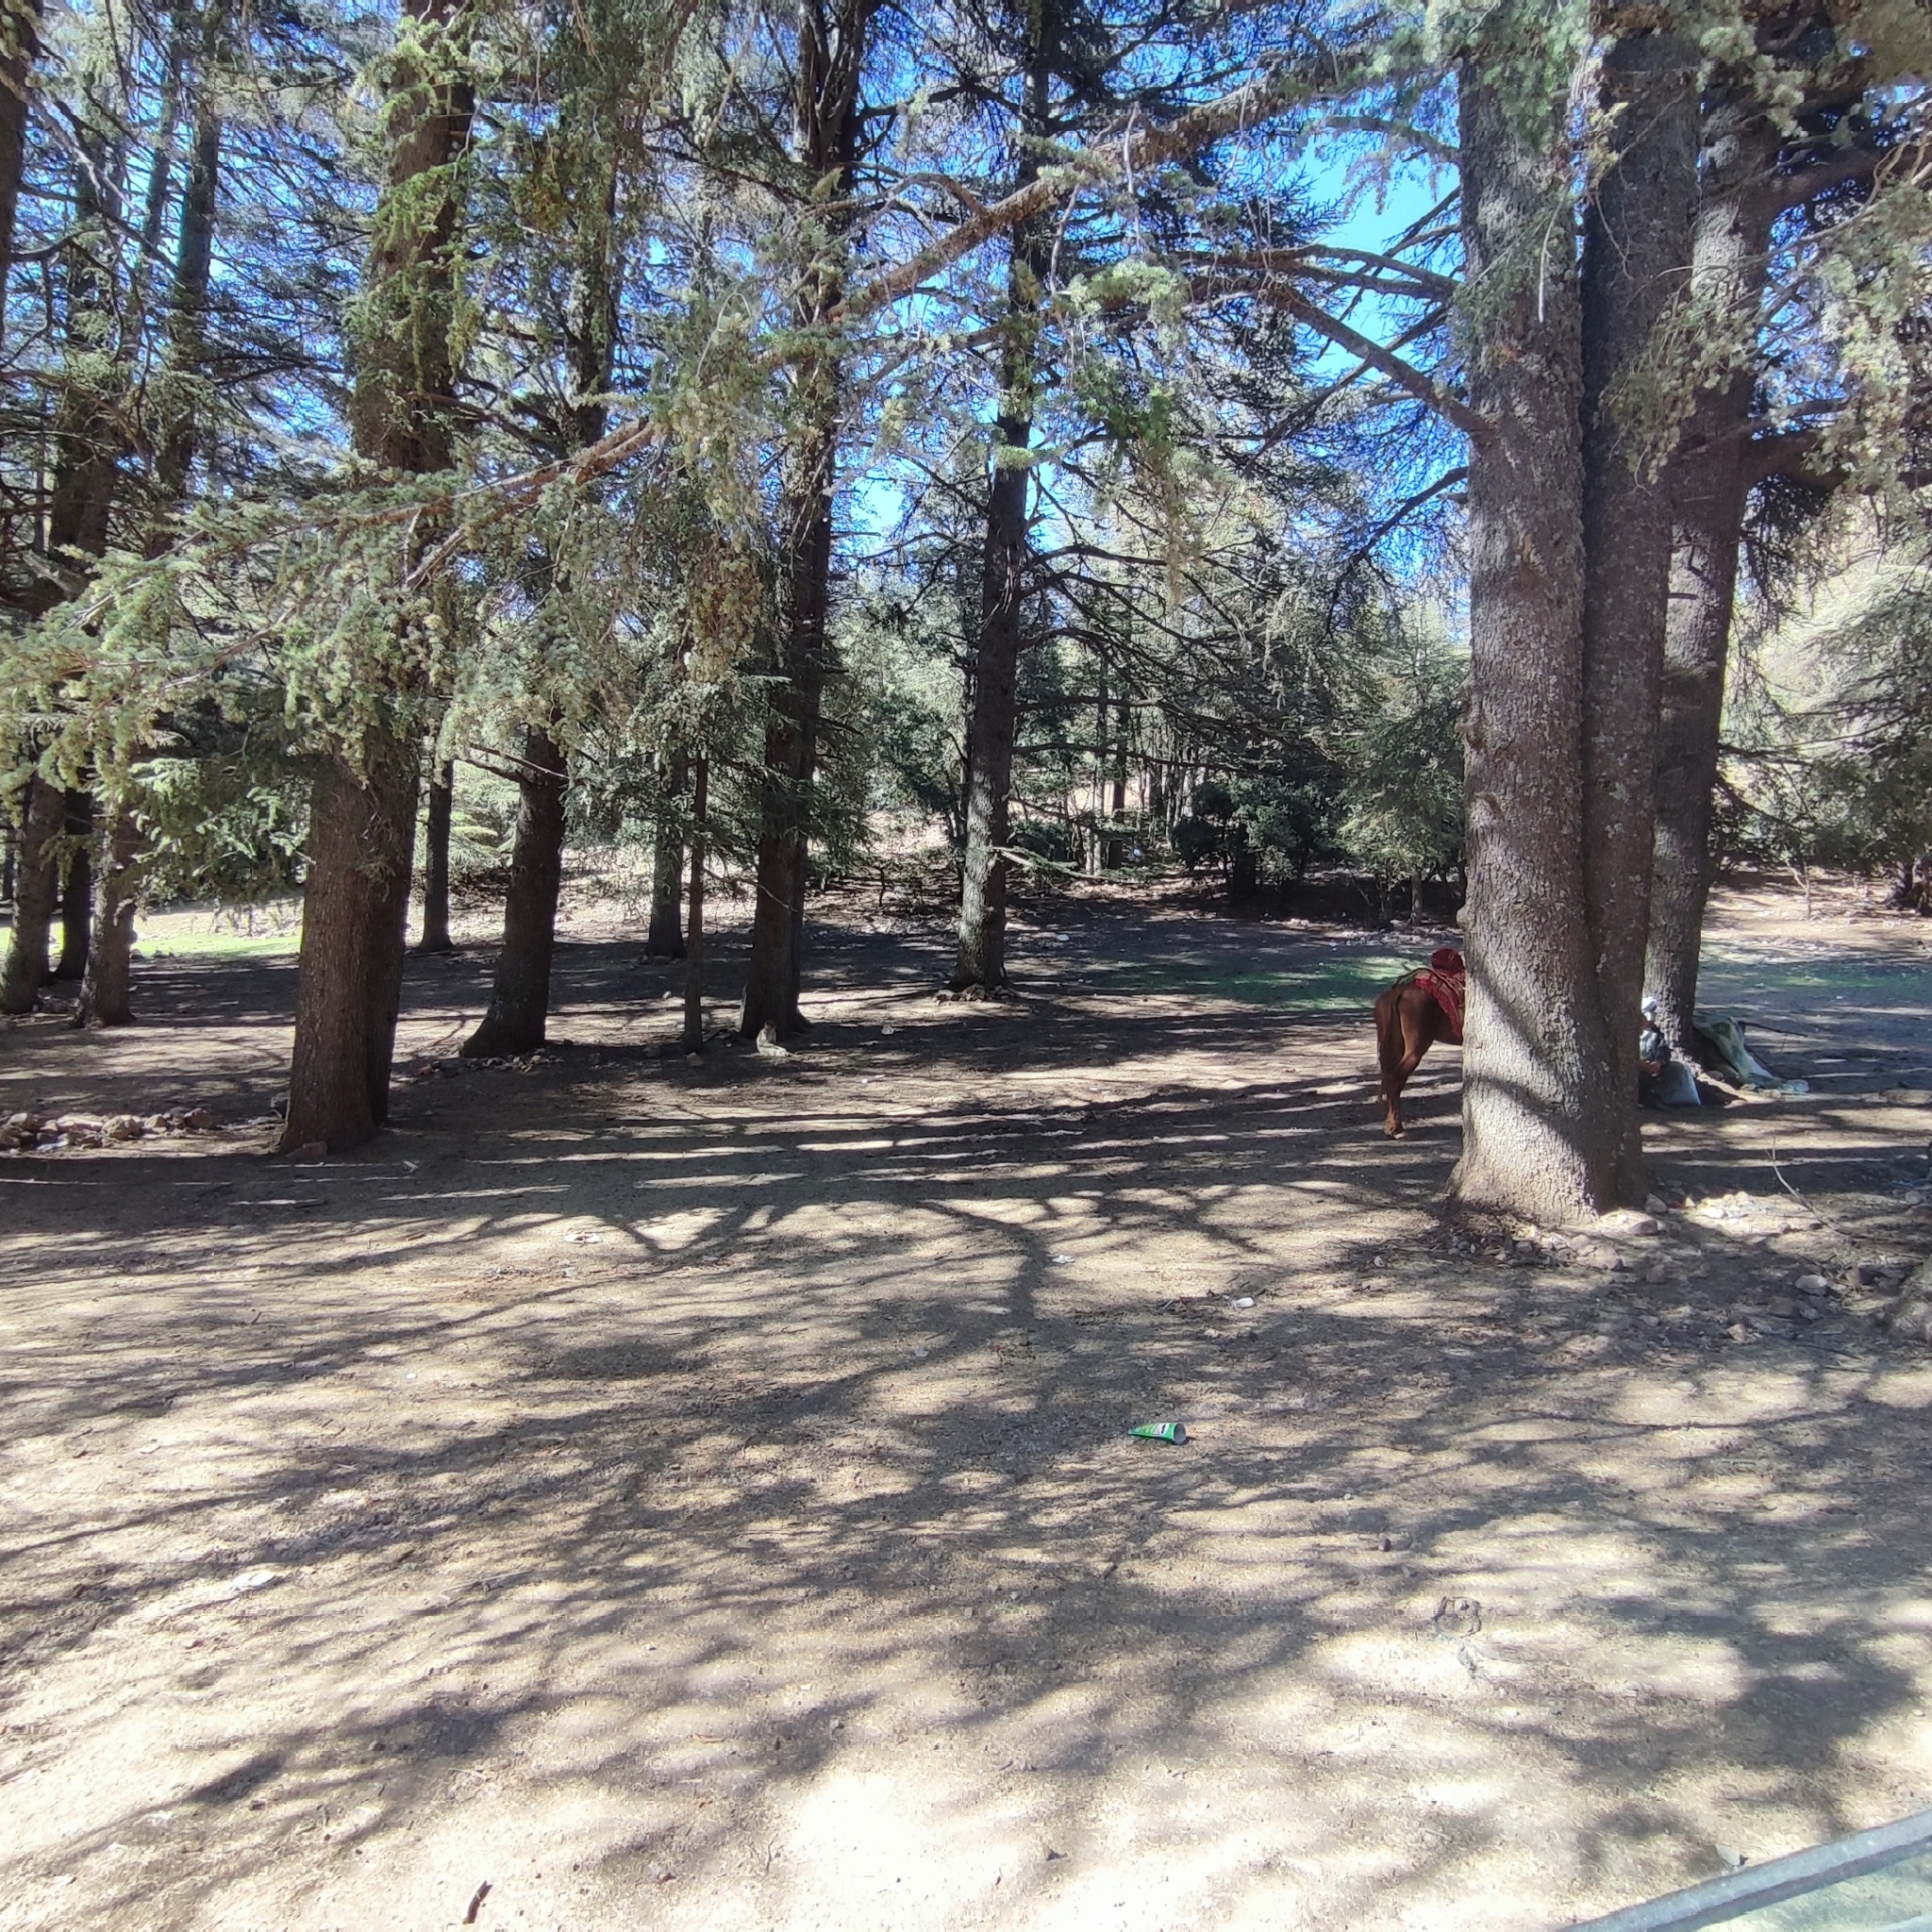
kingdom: Animalia
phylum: Chordata
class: Mammalia
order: Primates
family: Cercopithecidae
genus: Macaca
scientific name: Macaca sylvanus
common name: Barbary macaque
